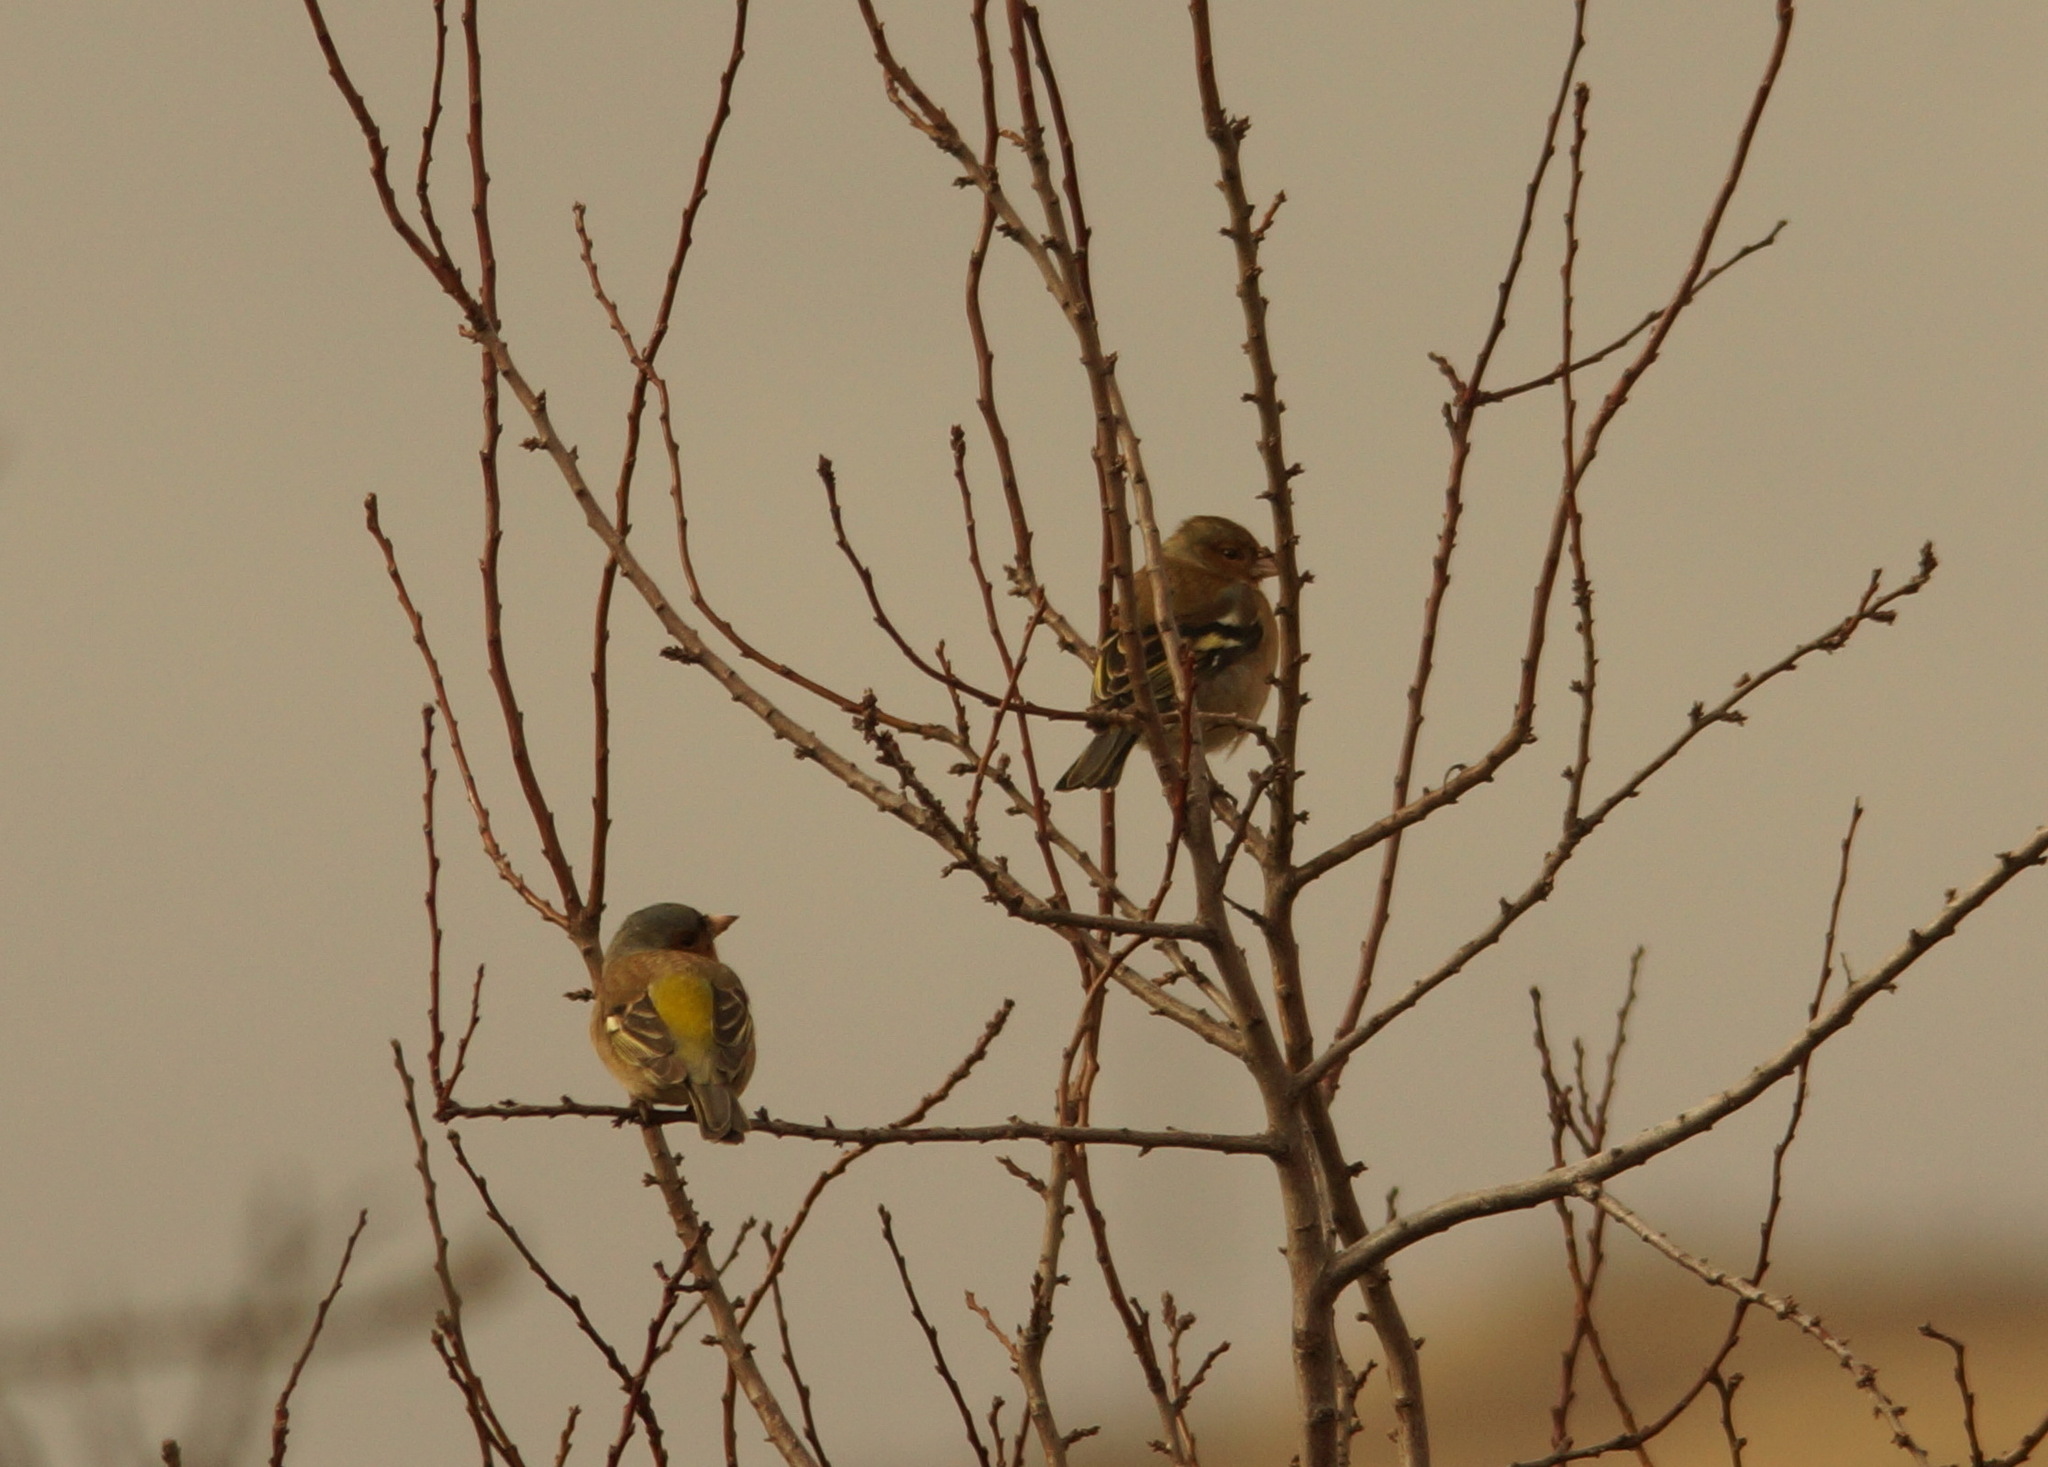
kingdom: Animalia
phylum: Chordata
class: Aves
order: Passeriformes
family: Fringillidae
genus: Fringilla
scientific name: Fringilla coelebs
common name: Common chaffinch
